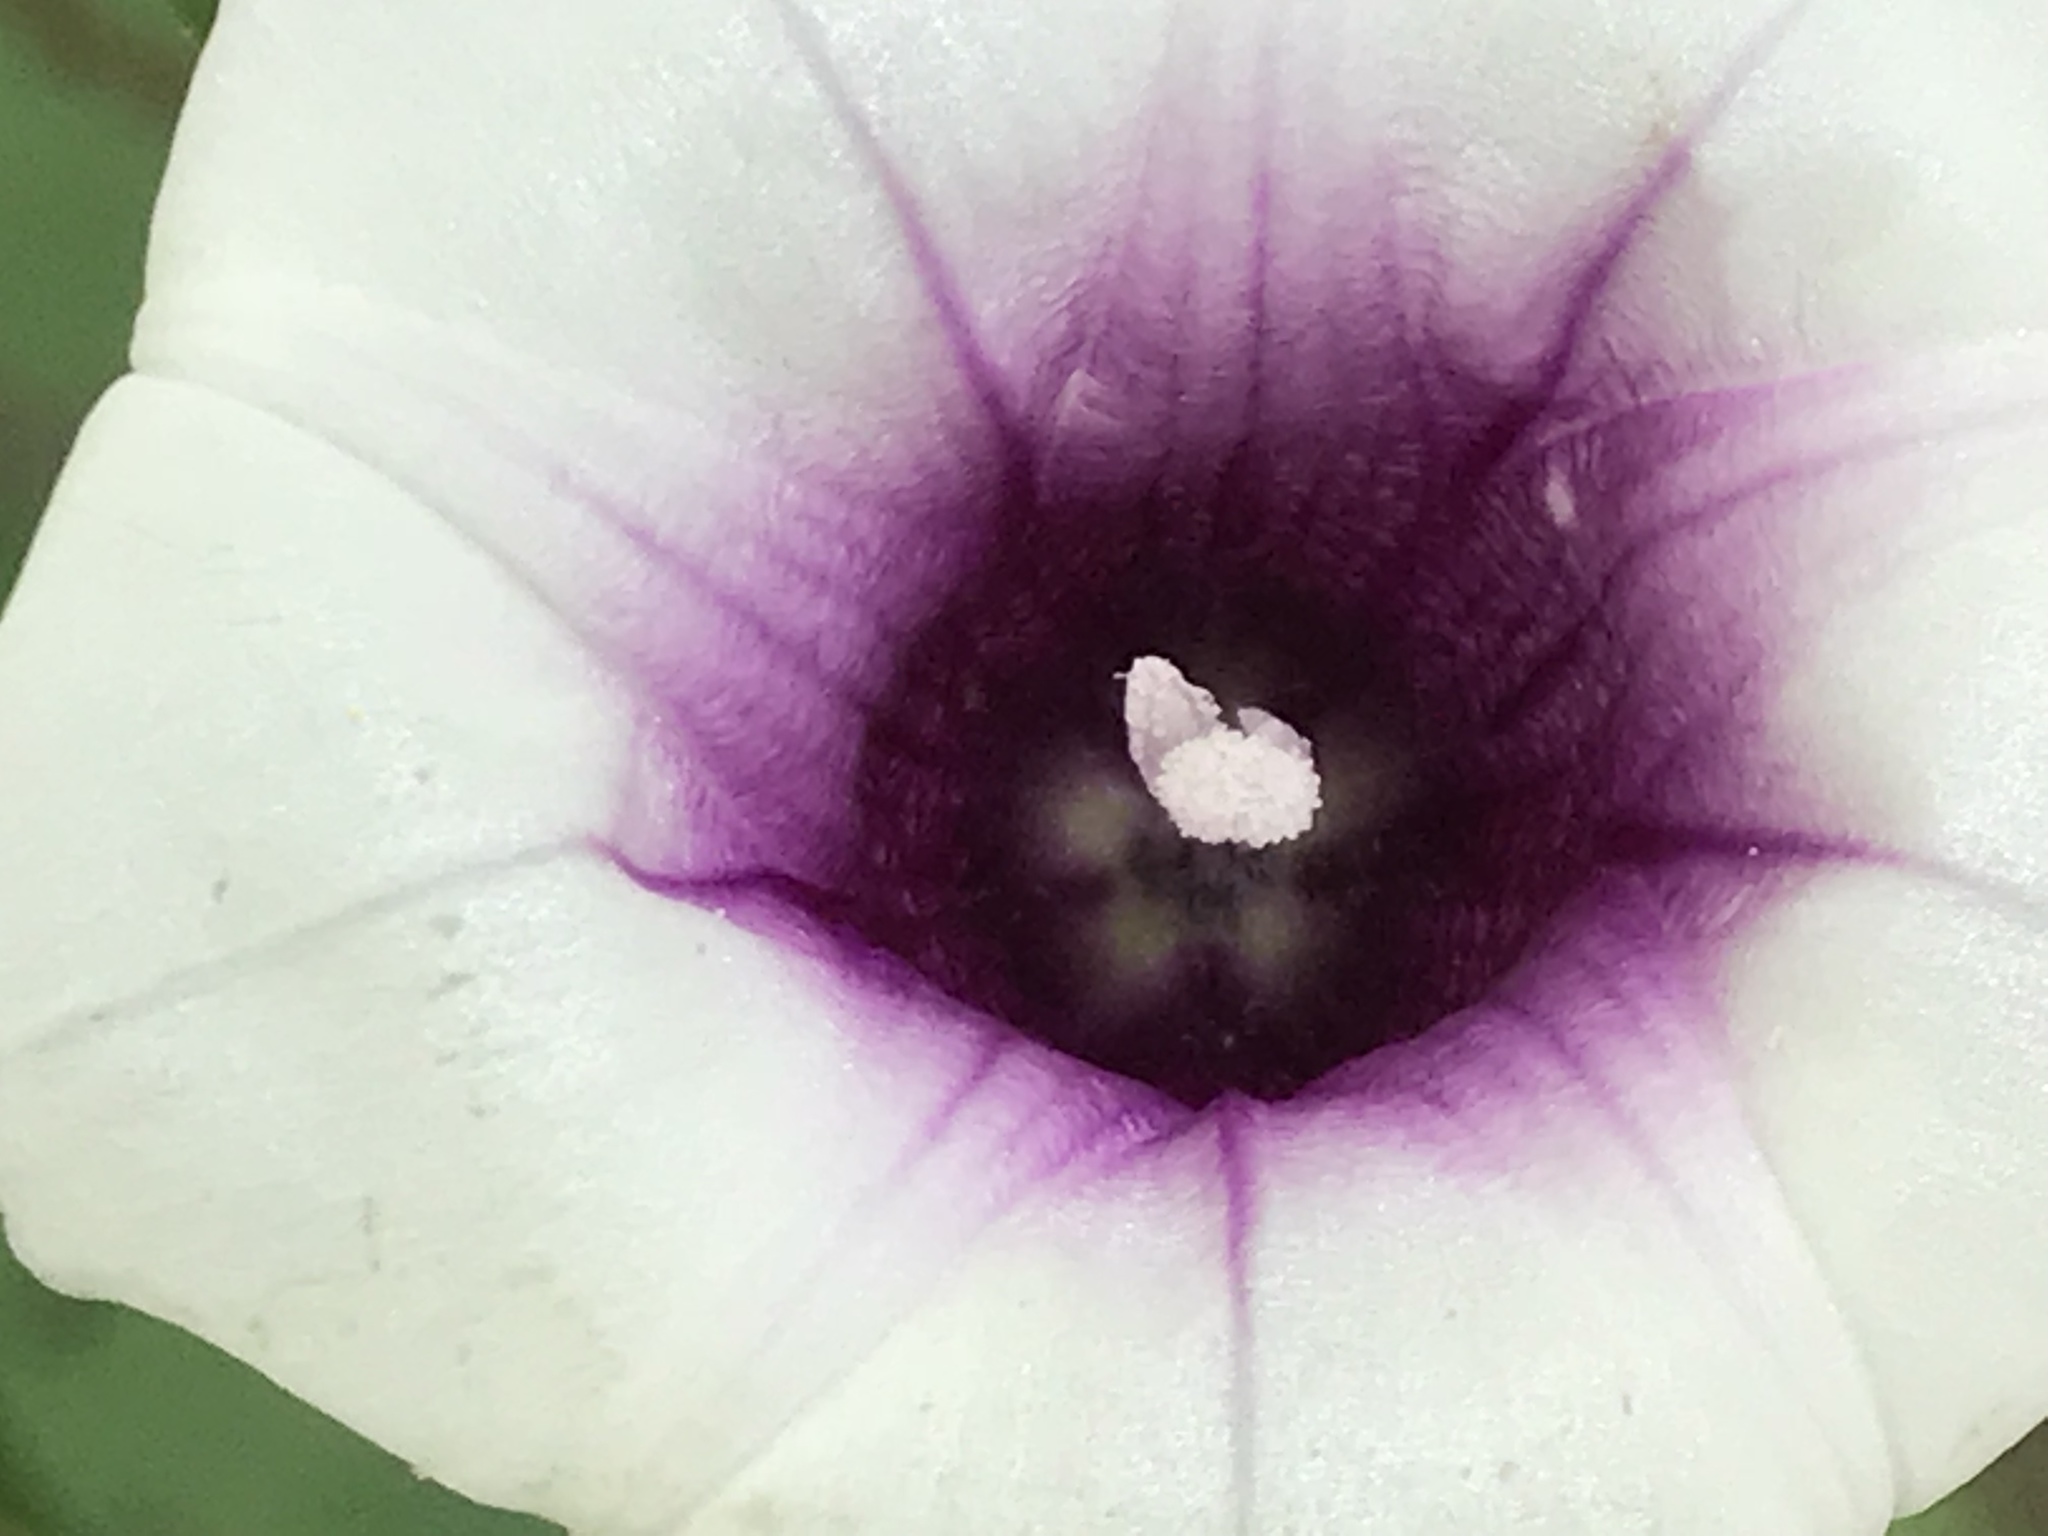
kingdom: Plantae
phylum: Tracheophyta
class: Magnoliopsida
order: Solanales
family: Convolvulaceae
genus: Ipomoea
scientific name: Ipomoea batatas
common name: Sweet-potato
